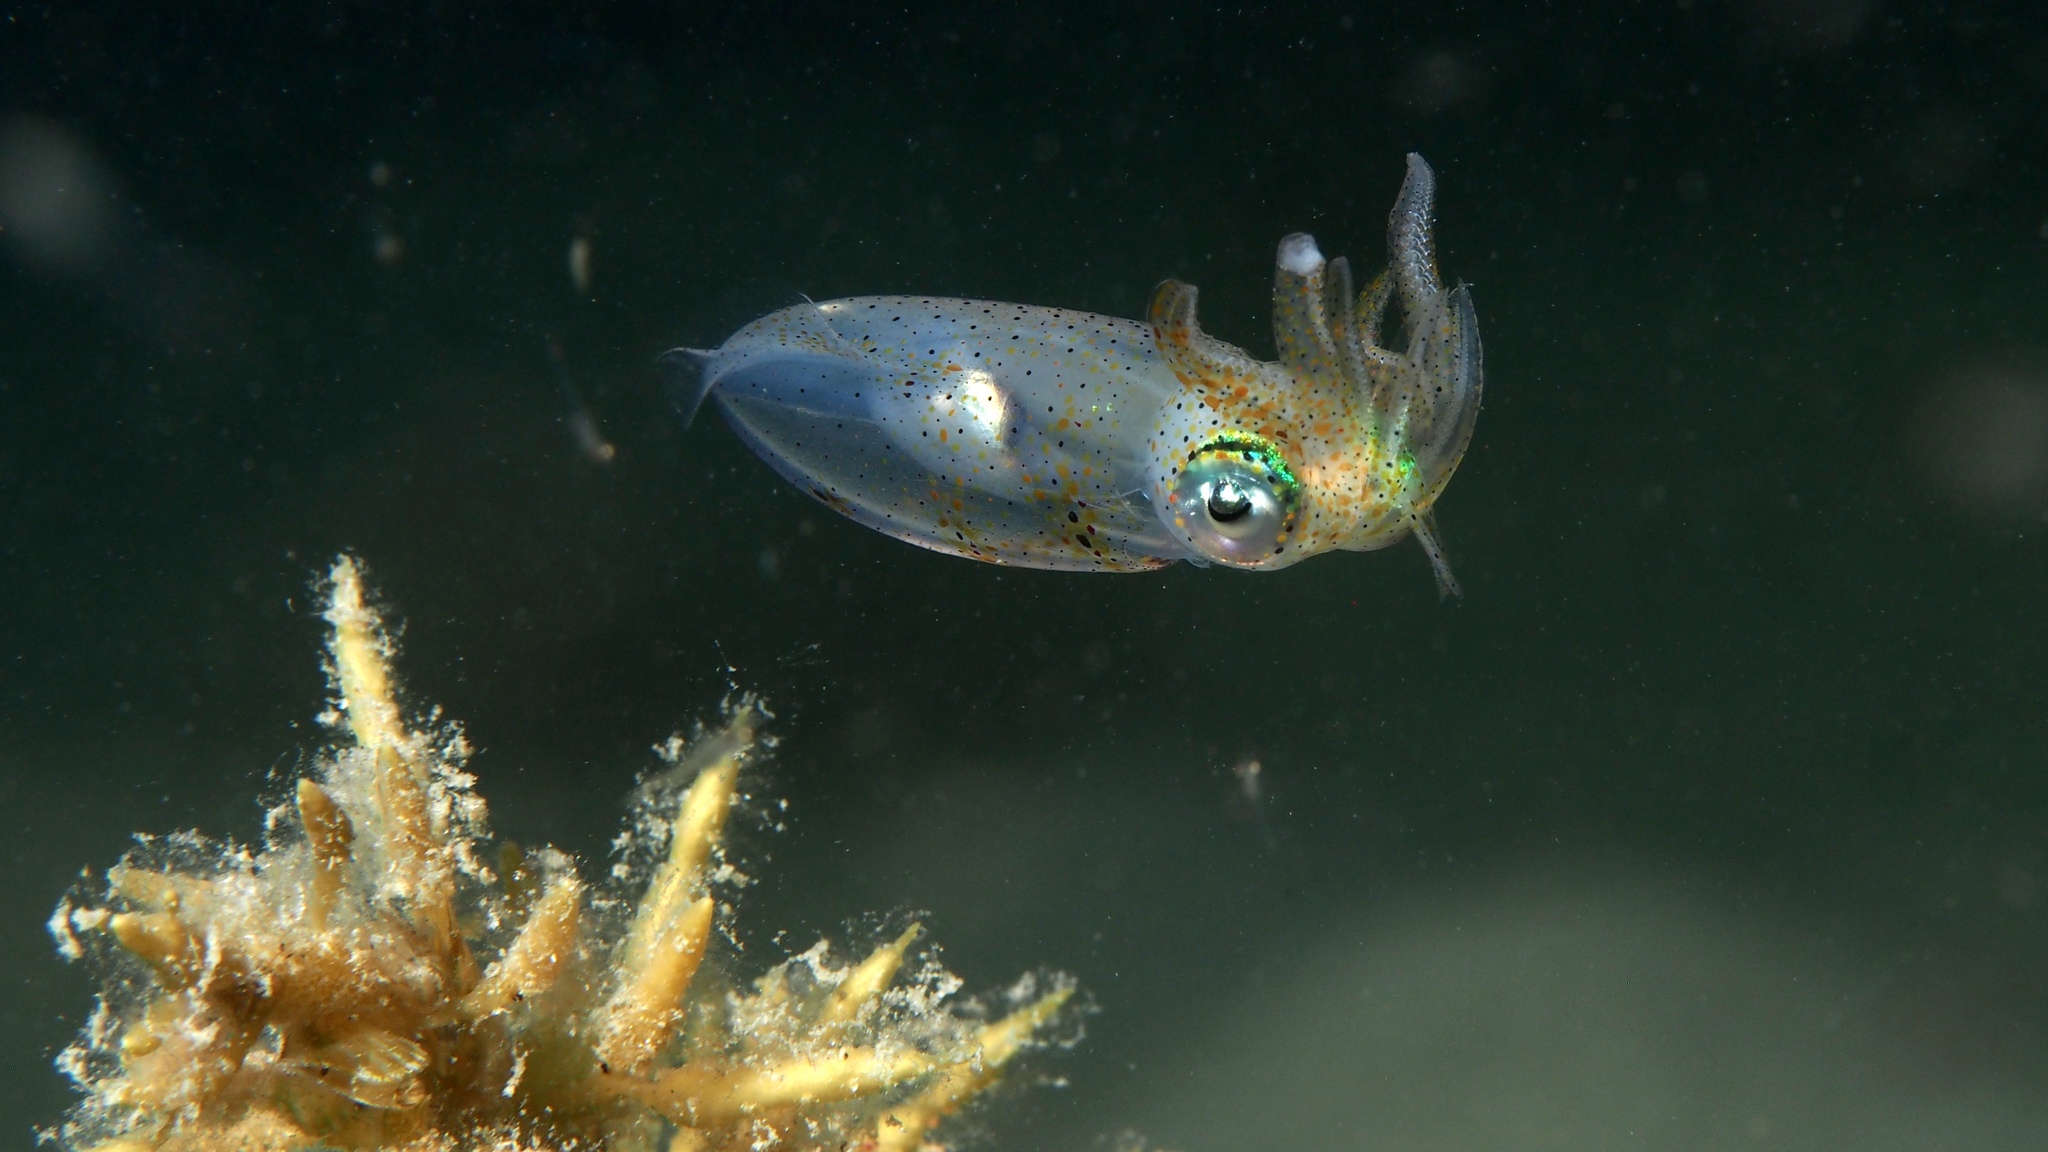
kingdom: Animalia
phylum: Mollusca
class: Cephalopoda
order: Myopsida
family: Loliginidae
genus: Sepioteuthis
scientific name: Sepioteuthis australis
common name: Southern reef squid
